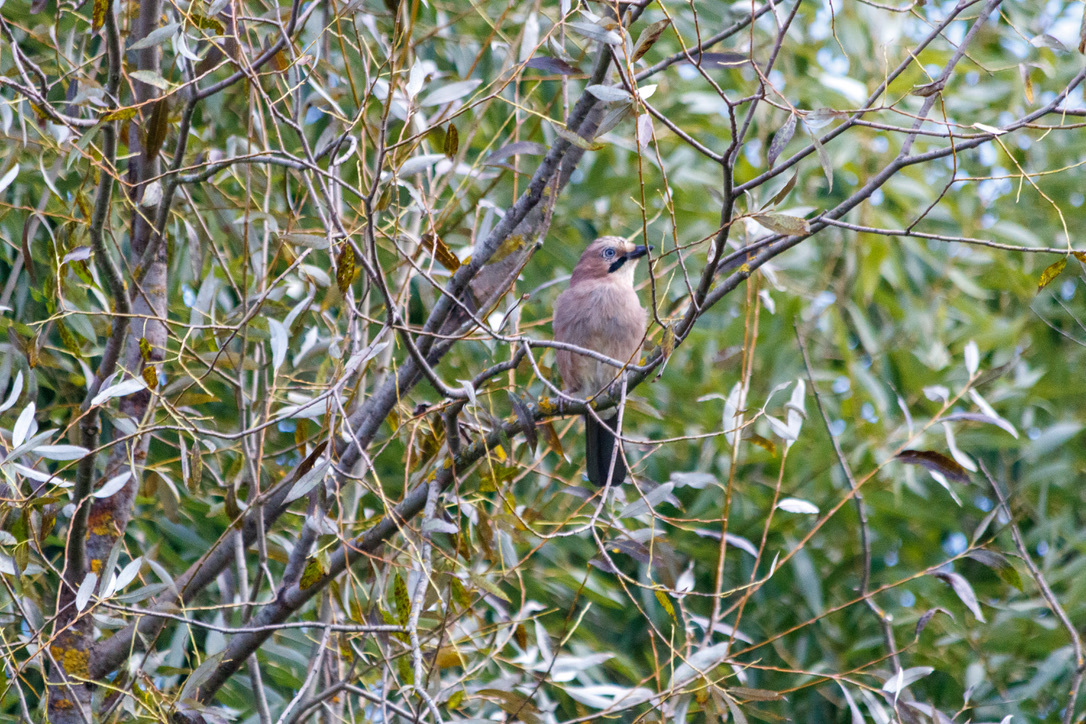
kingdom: Animalia
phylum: Chordata
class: Aves
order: Passeriformes
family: Corvidae
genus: Garrulus
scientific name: Garrulus glandarius
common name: Eurasian jay
